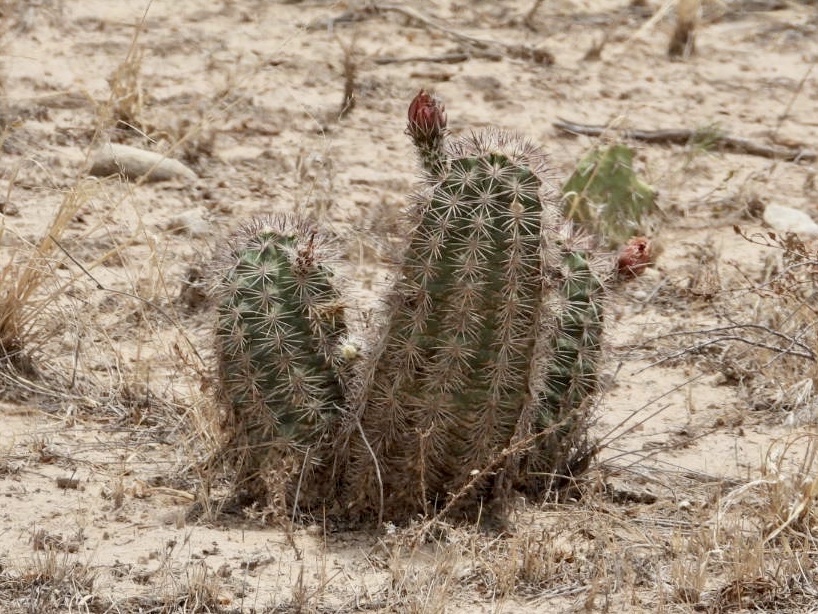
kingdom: Plantae
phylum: Tracheophyta
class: Magnoliopsida
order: Caryophyllales
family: Cactaceae
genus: Echinocereus
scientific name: Echinocereus roetteri
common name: Lloyd's hedgehog cactus
